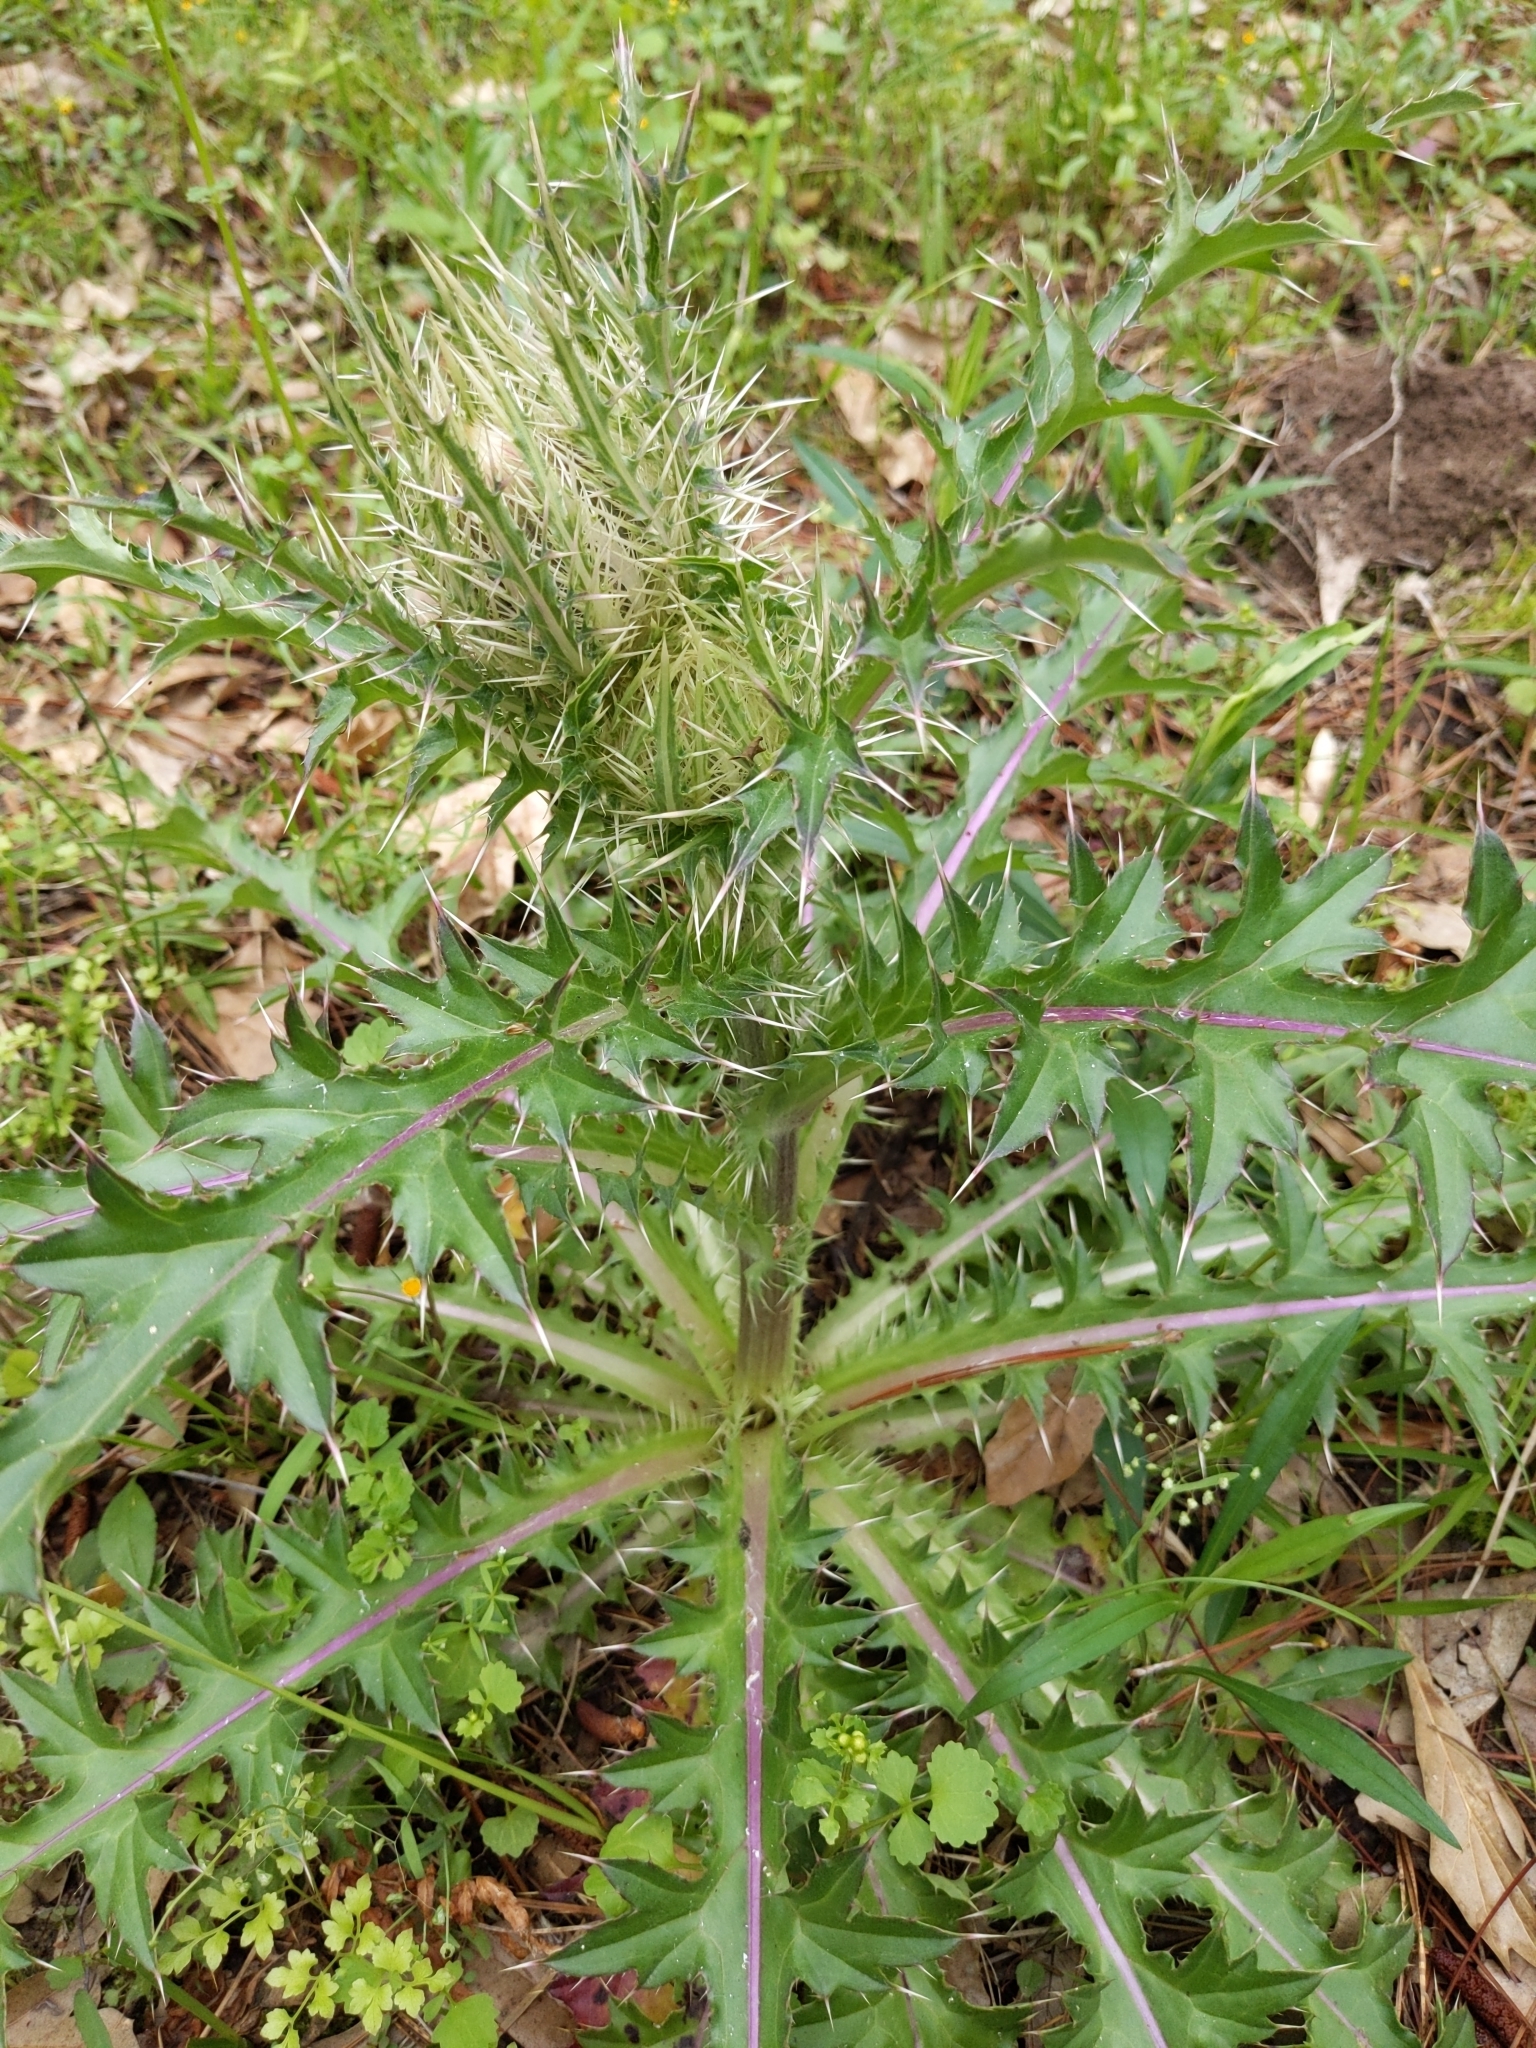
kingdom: Plantae
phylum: Tracheophyta
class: Magnoliopsida
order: Asterales
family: Asteraceae
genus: Cirsium
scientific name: Cirsium horridulum
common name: Bristly thistle
